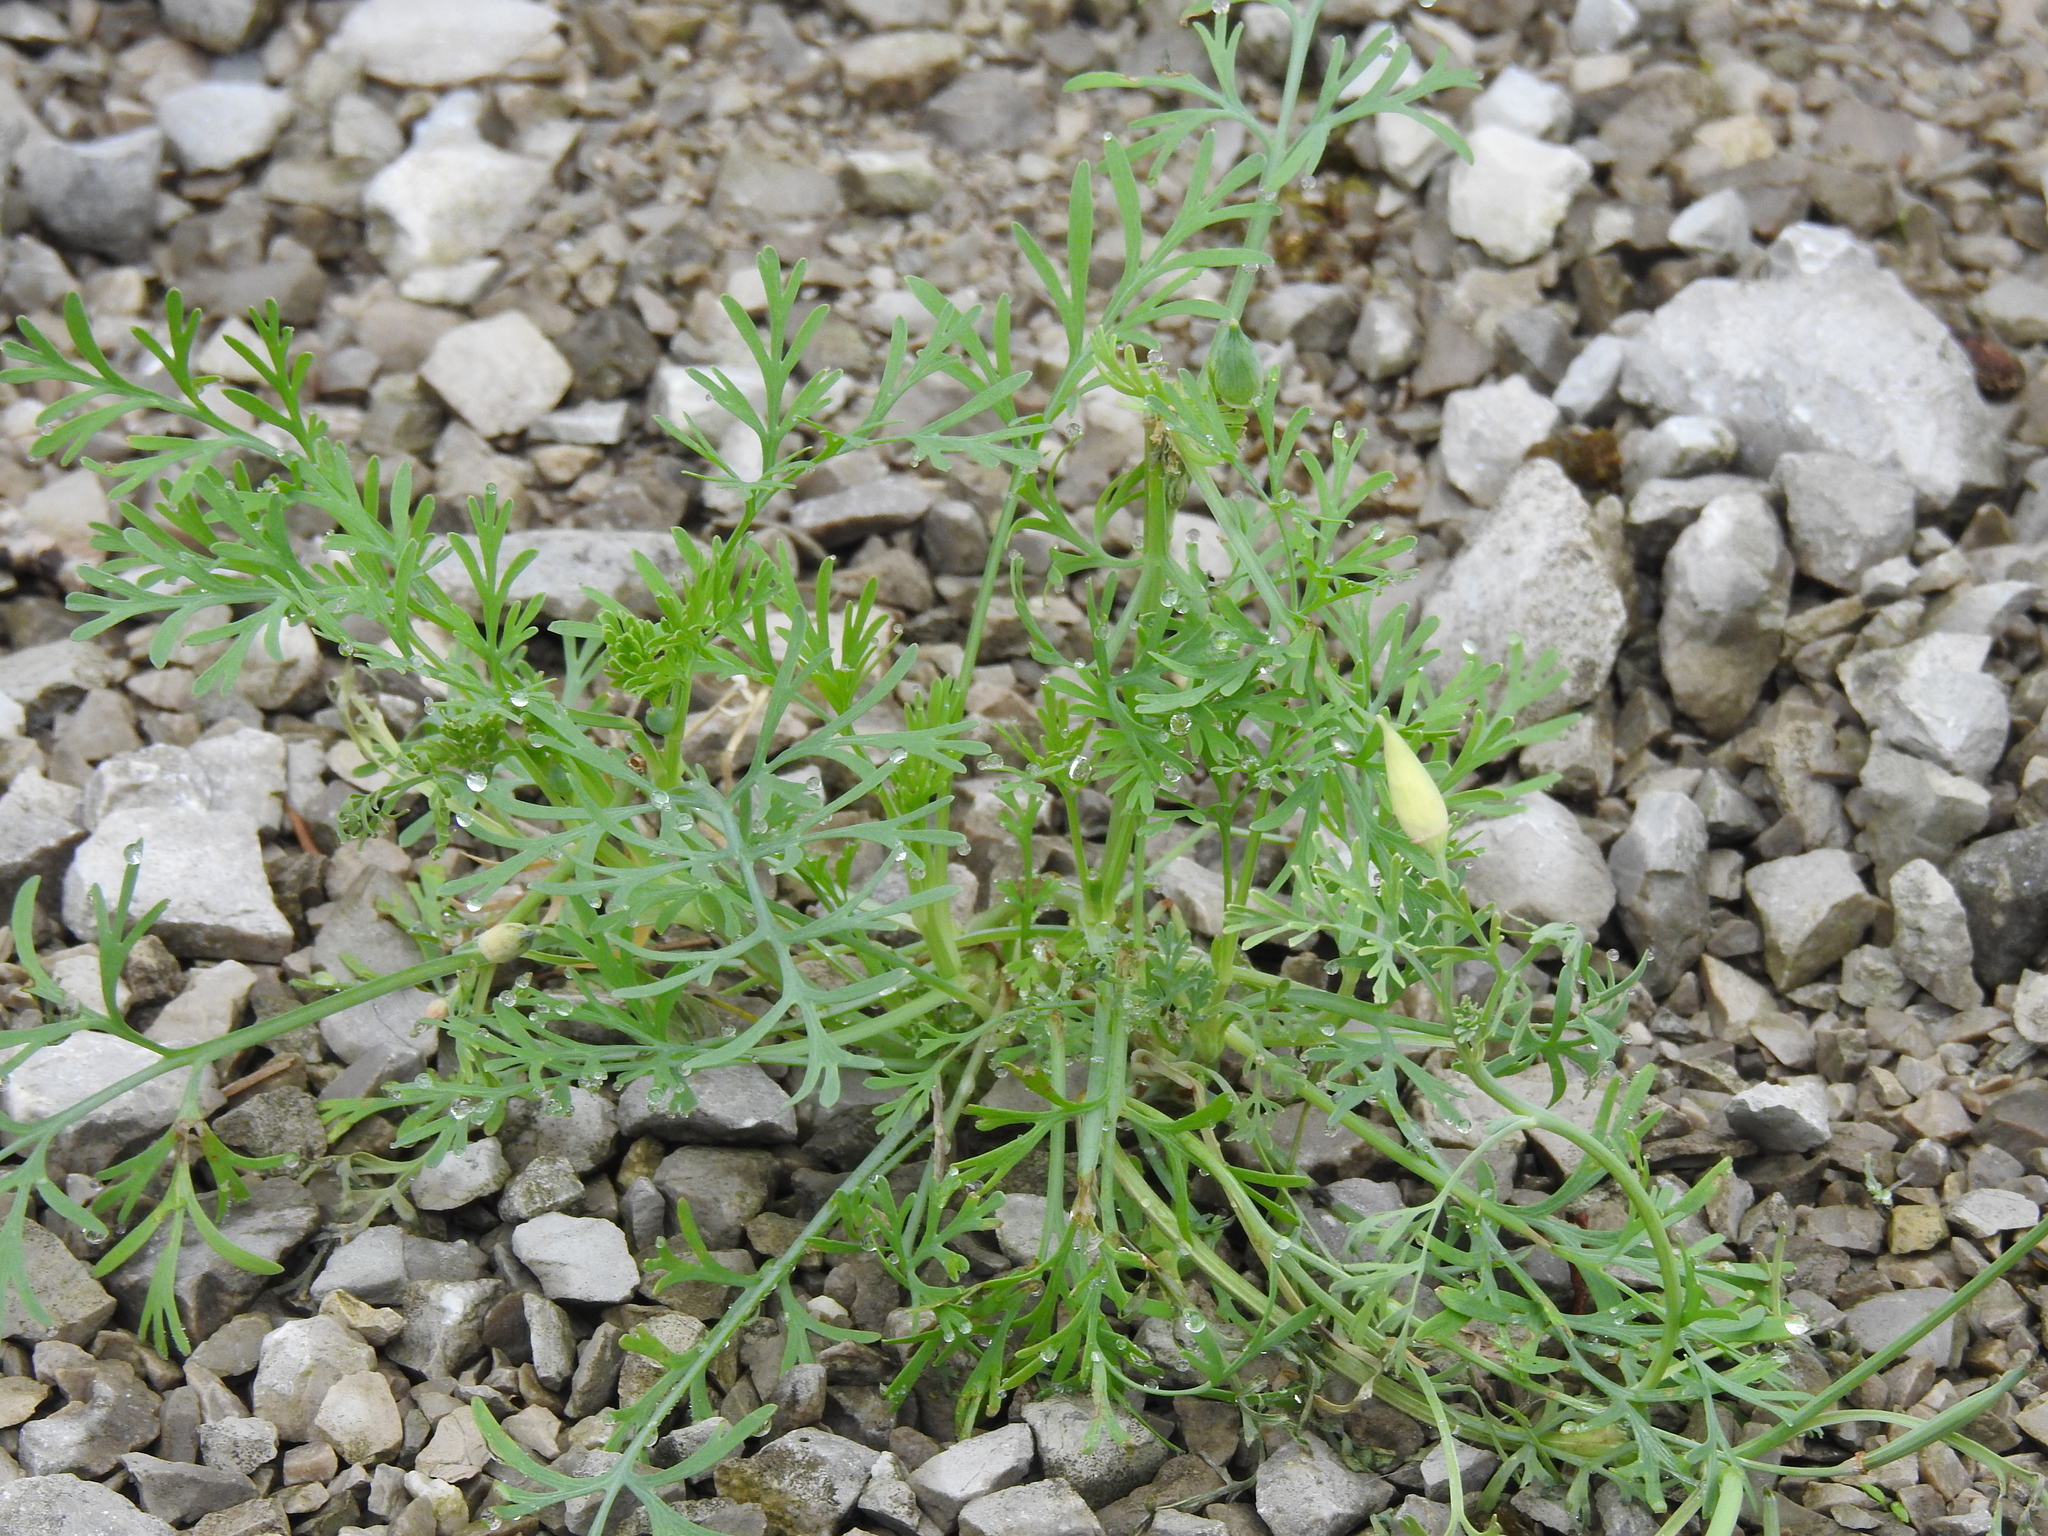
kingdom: Plantae
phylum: Tracheophyta
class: Magnoliopsida
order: Ranunculales
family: Papaveraceae
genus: Eschscholzia
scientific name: Eschscholzia californica
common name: California poppy
